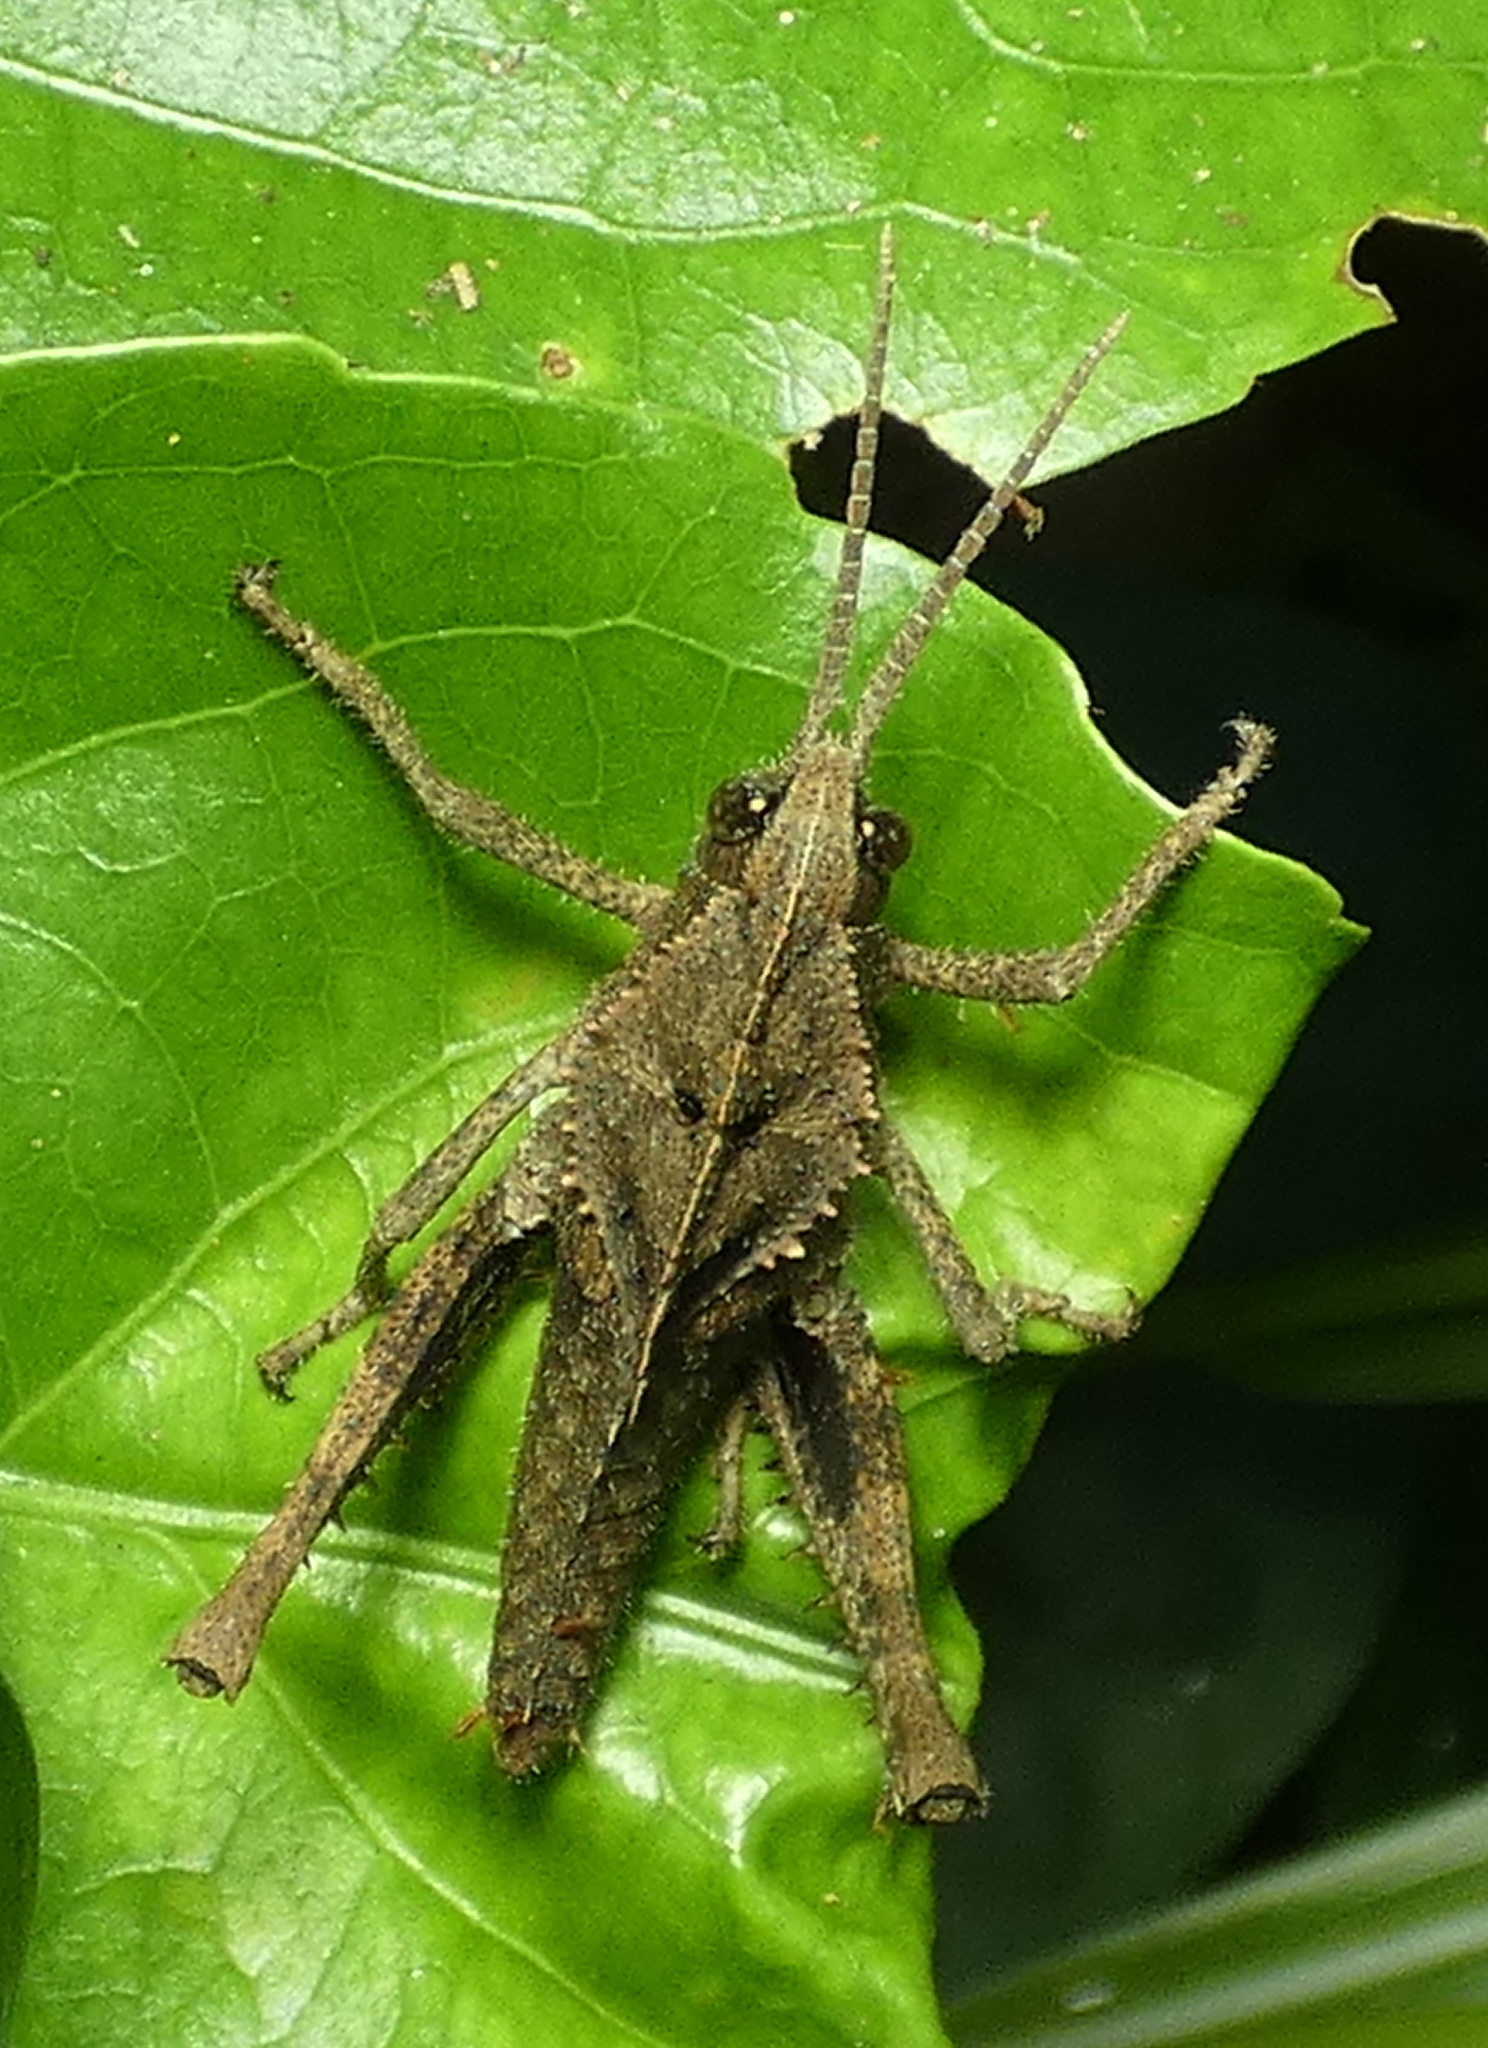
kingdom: Animalia
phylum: Arthropoda
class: Insecta
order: Orthoptera
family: Romaleidae
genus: Helionotus
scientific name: Helionotus mirabilis
